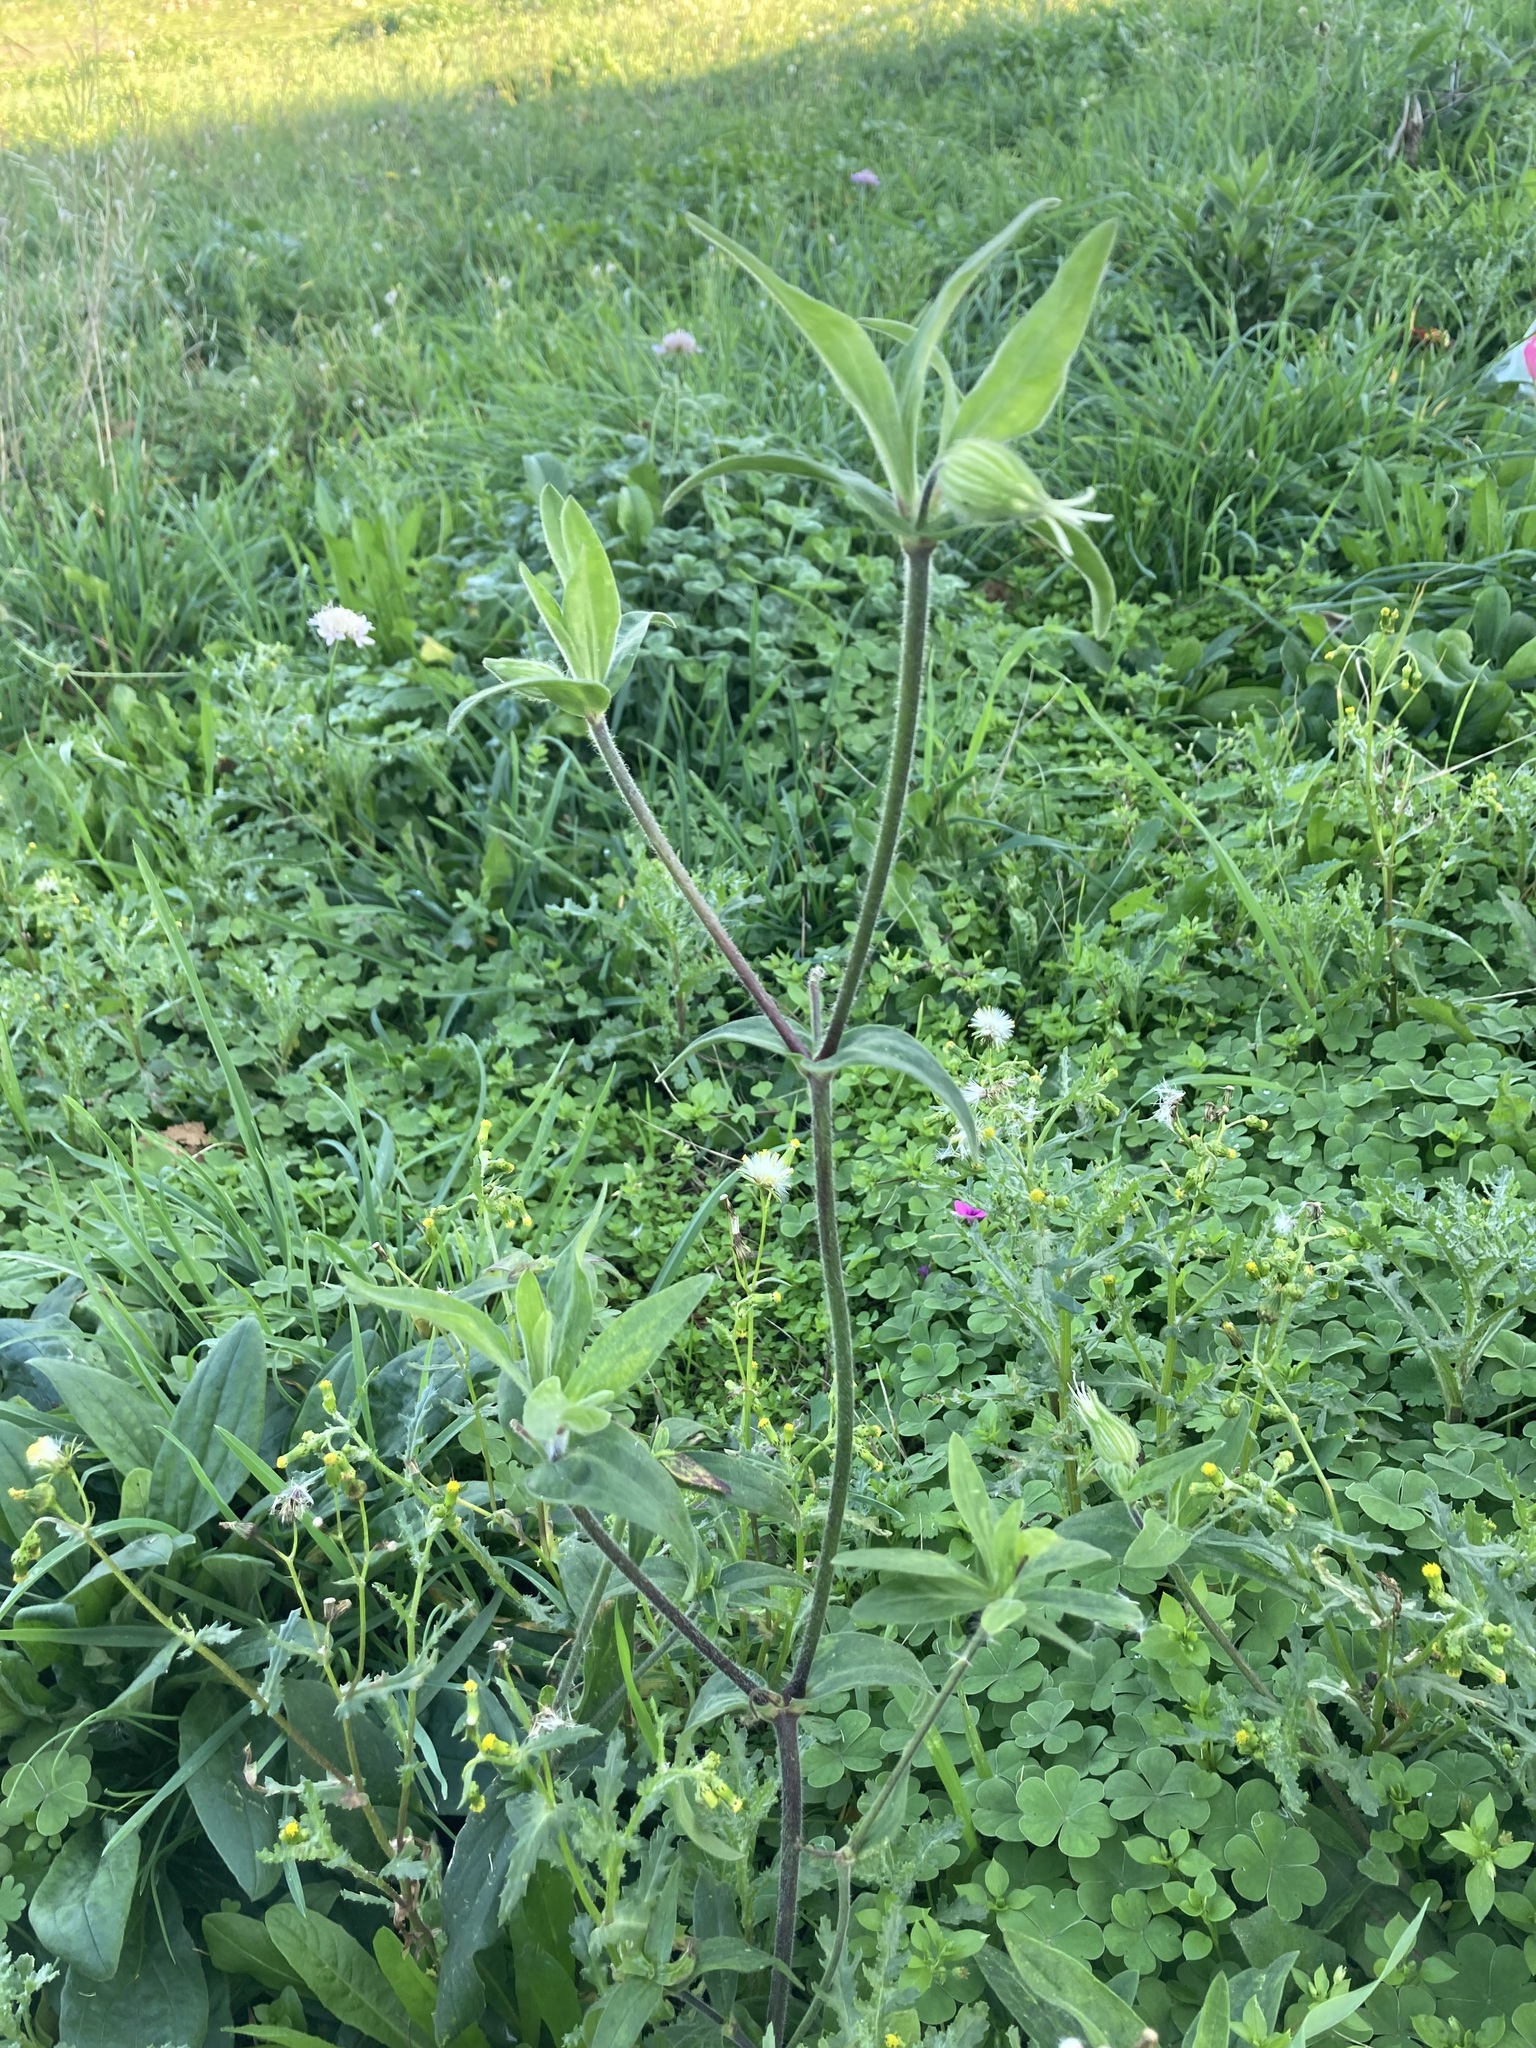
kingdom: Plantae
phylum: Tracheophyta
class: Magnoliopsida
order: Caryophyllales
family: Caryophyllaceae
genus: Silene
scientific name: Silene latifolia
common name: White campion
